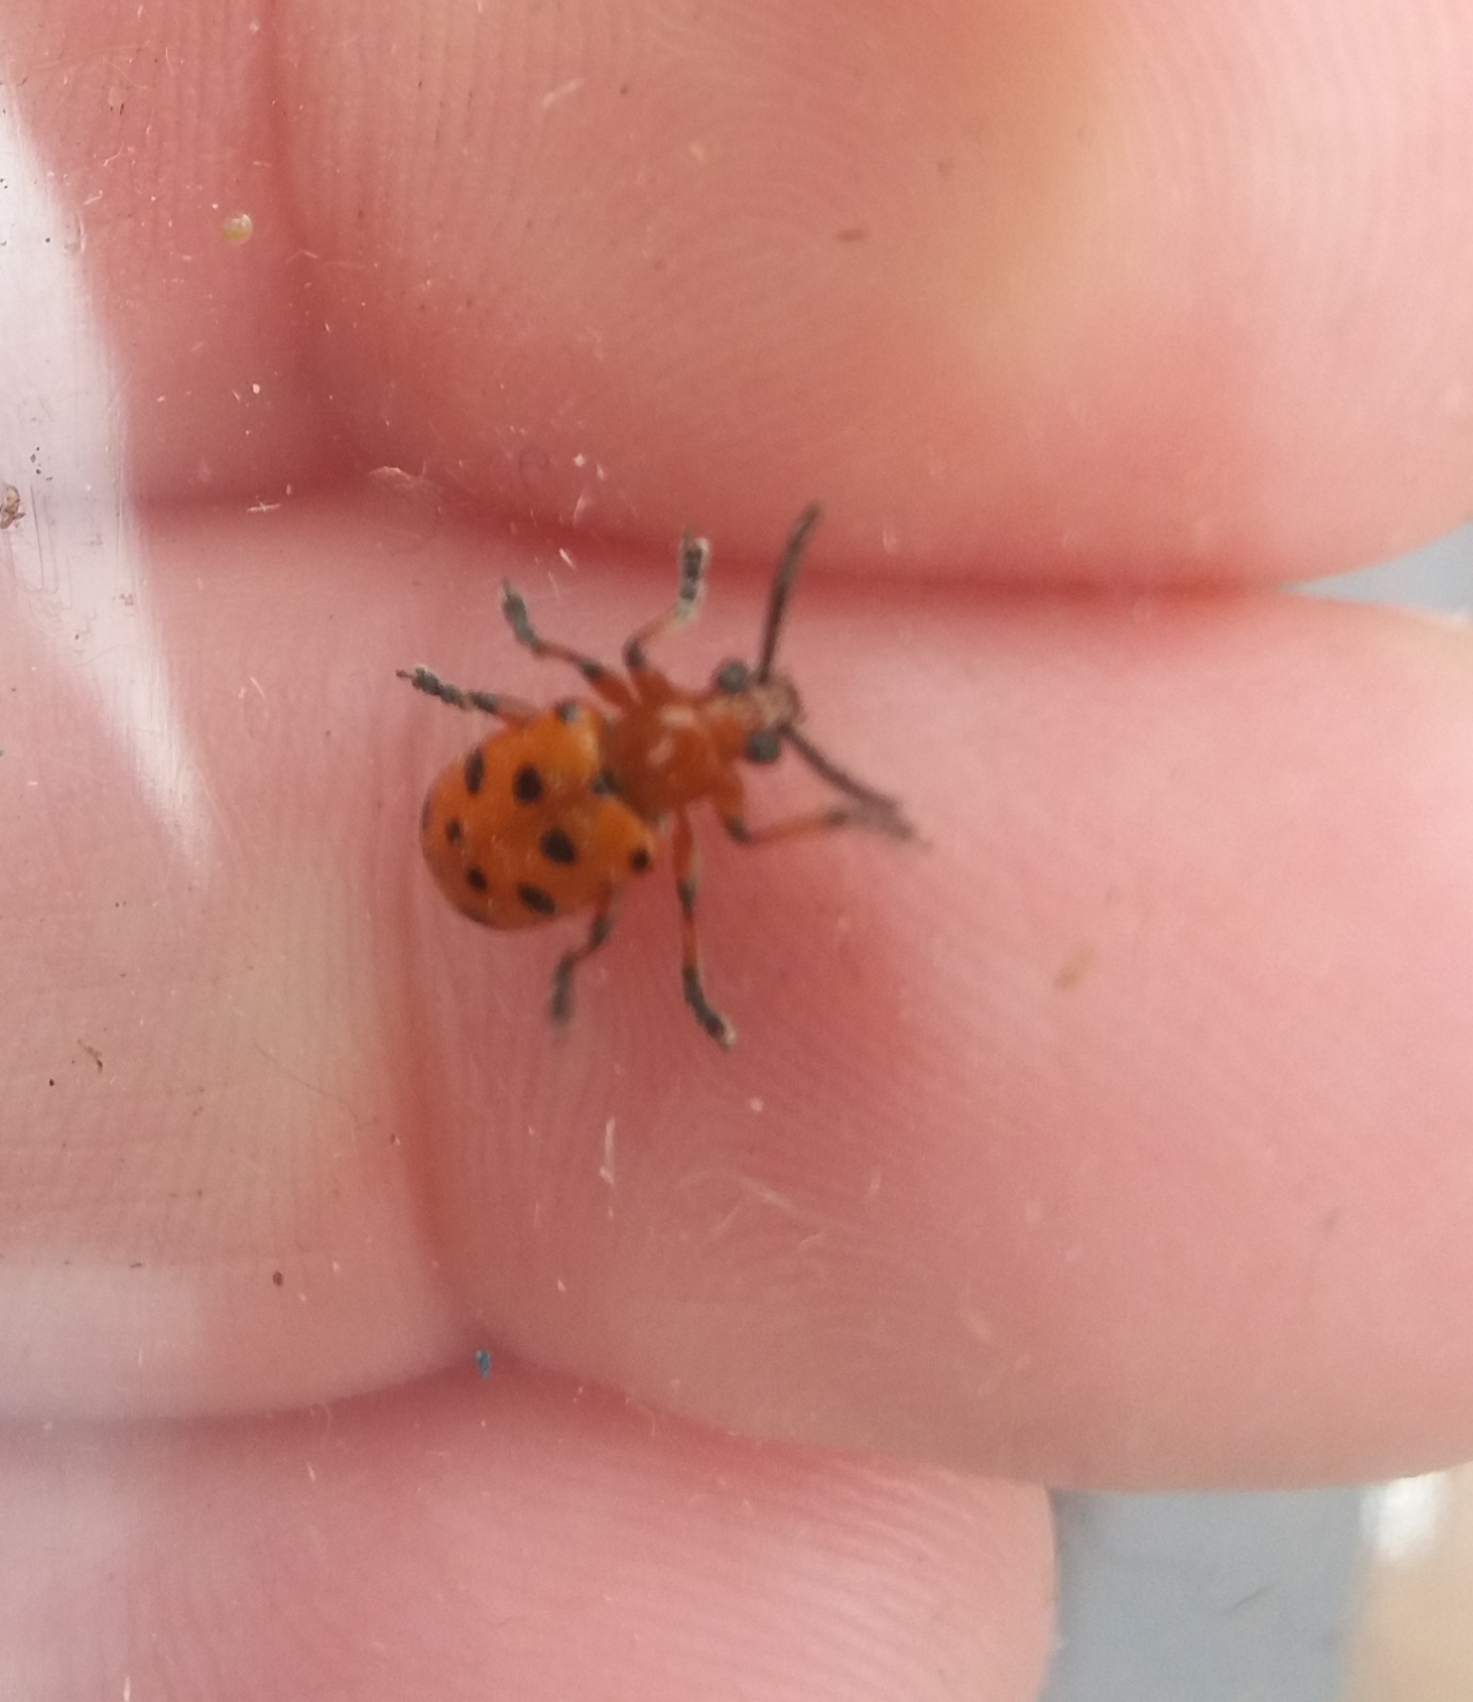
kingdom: Animalia
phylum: Arthropoda
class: Insecta
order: Coleoptera
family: Chrysomelidae
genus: Crioceris
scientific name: Crioceris duodecimpunctata
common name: Twelve-spotted asparagus beetle
